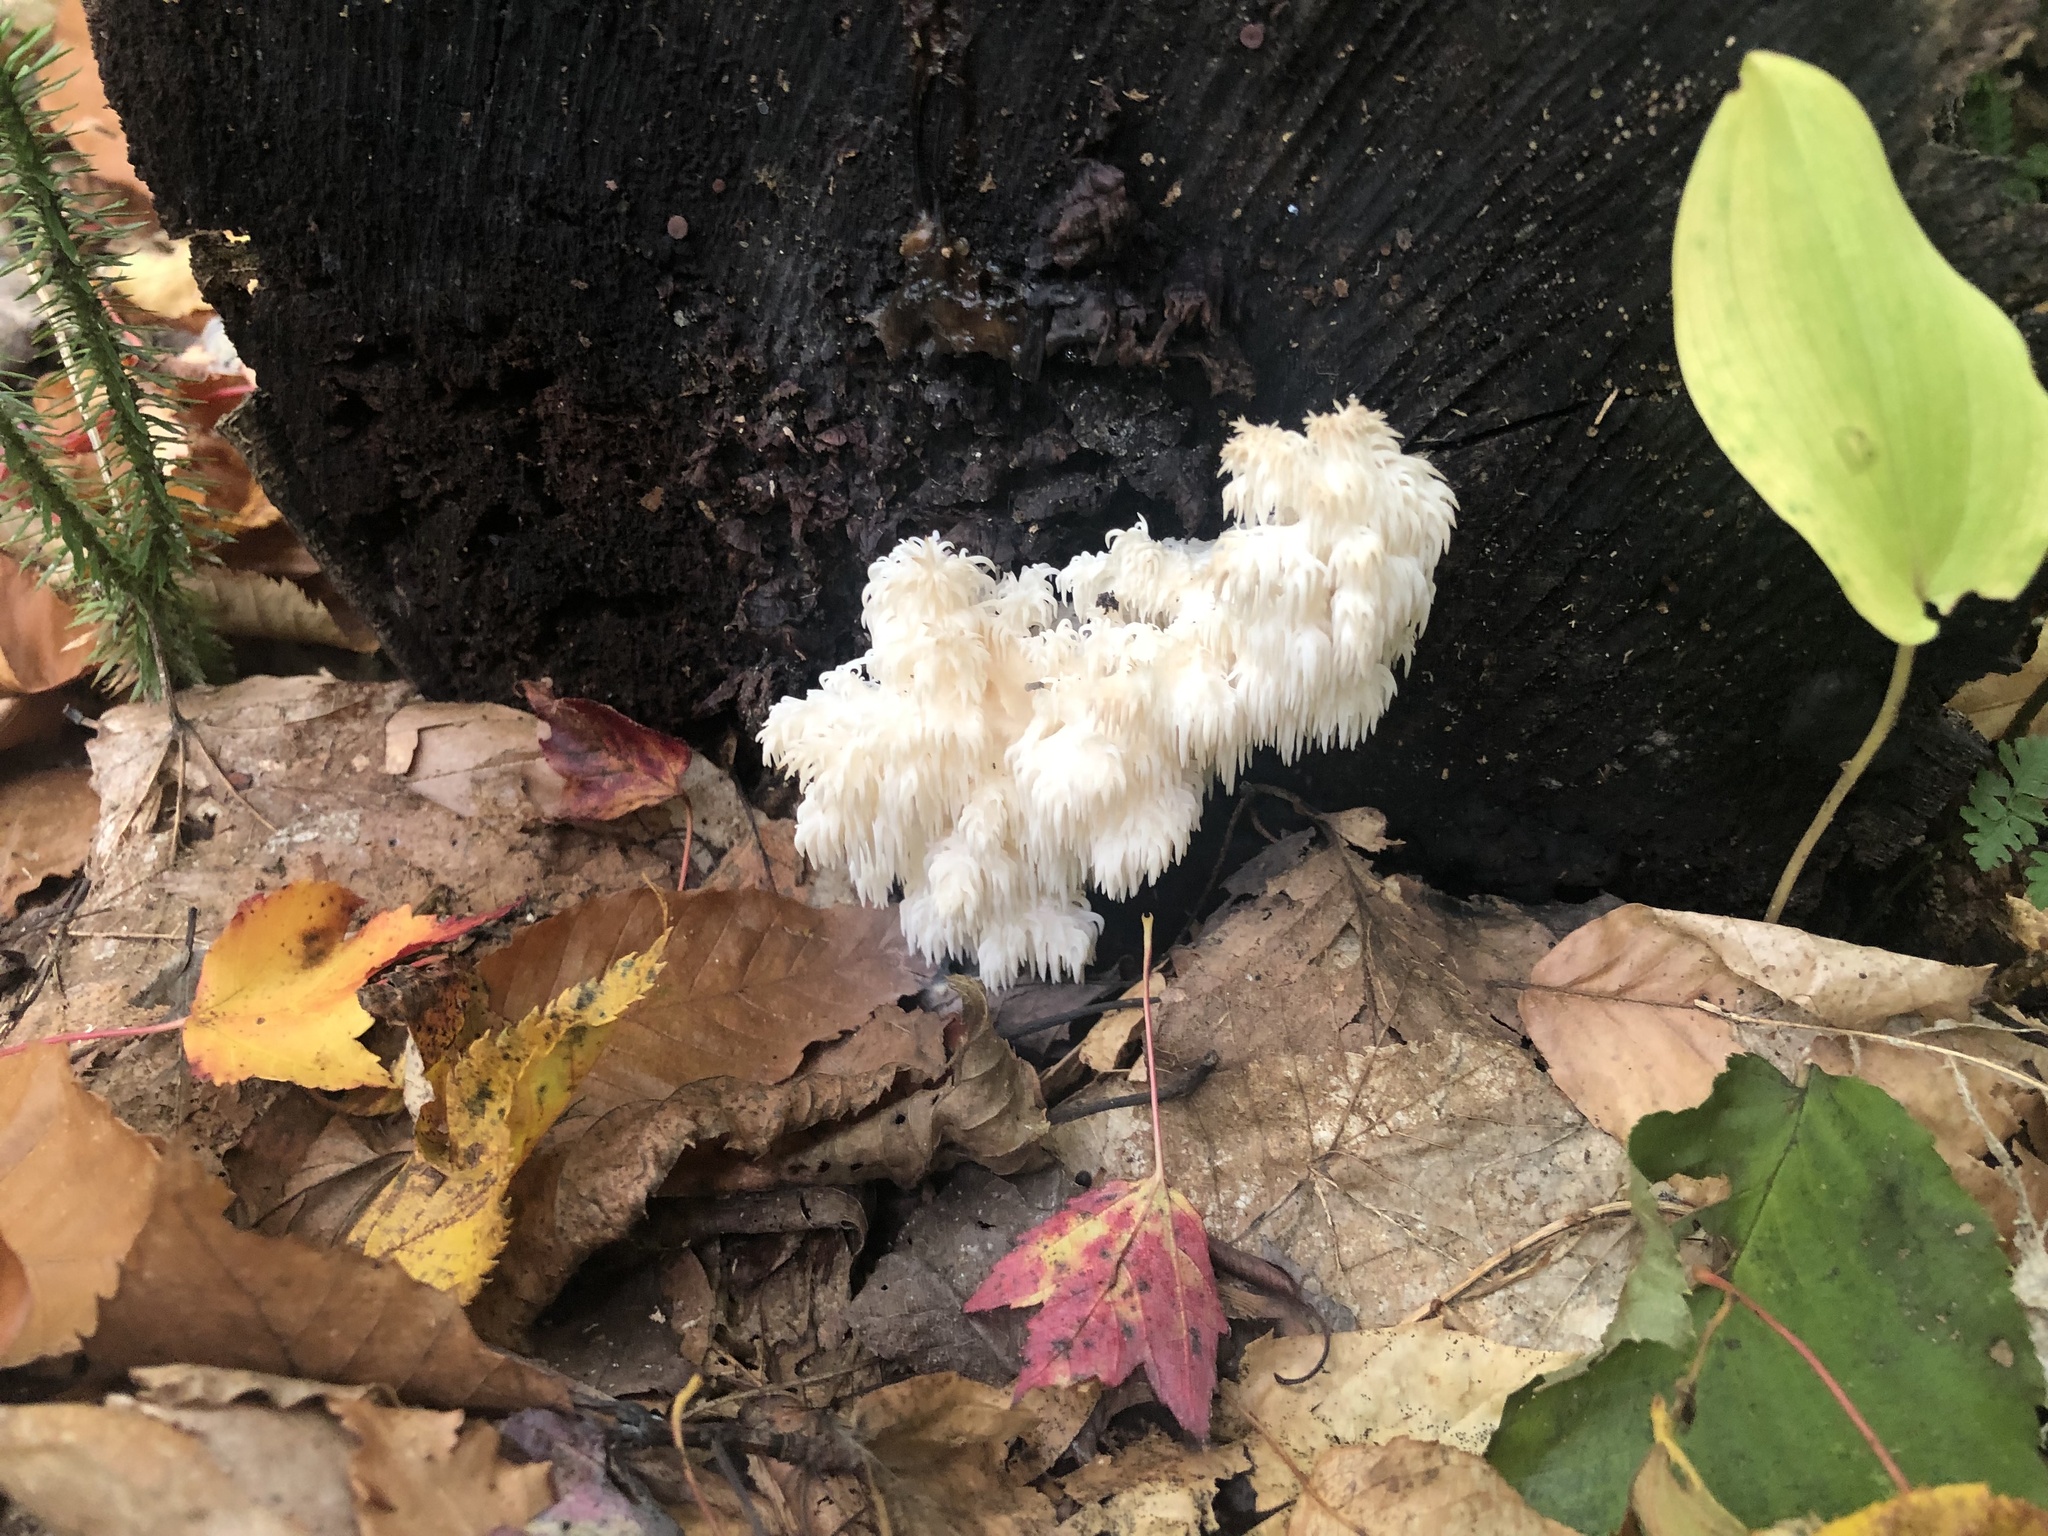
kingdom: Fungi
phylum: Basidiomycota
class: Agaricomycetes
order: Russulales
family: Hericiaceae
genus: Hericium
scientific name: Hericium americanum
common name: Bear's head tooth
